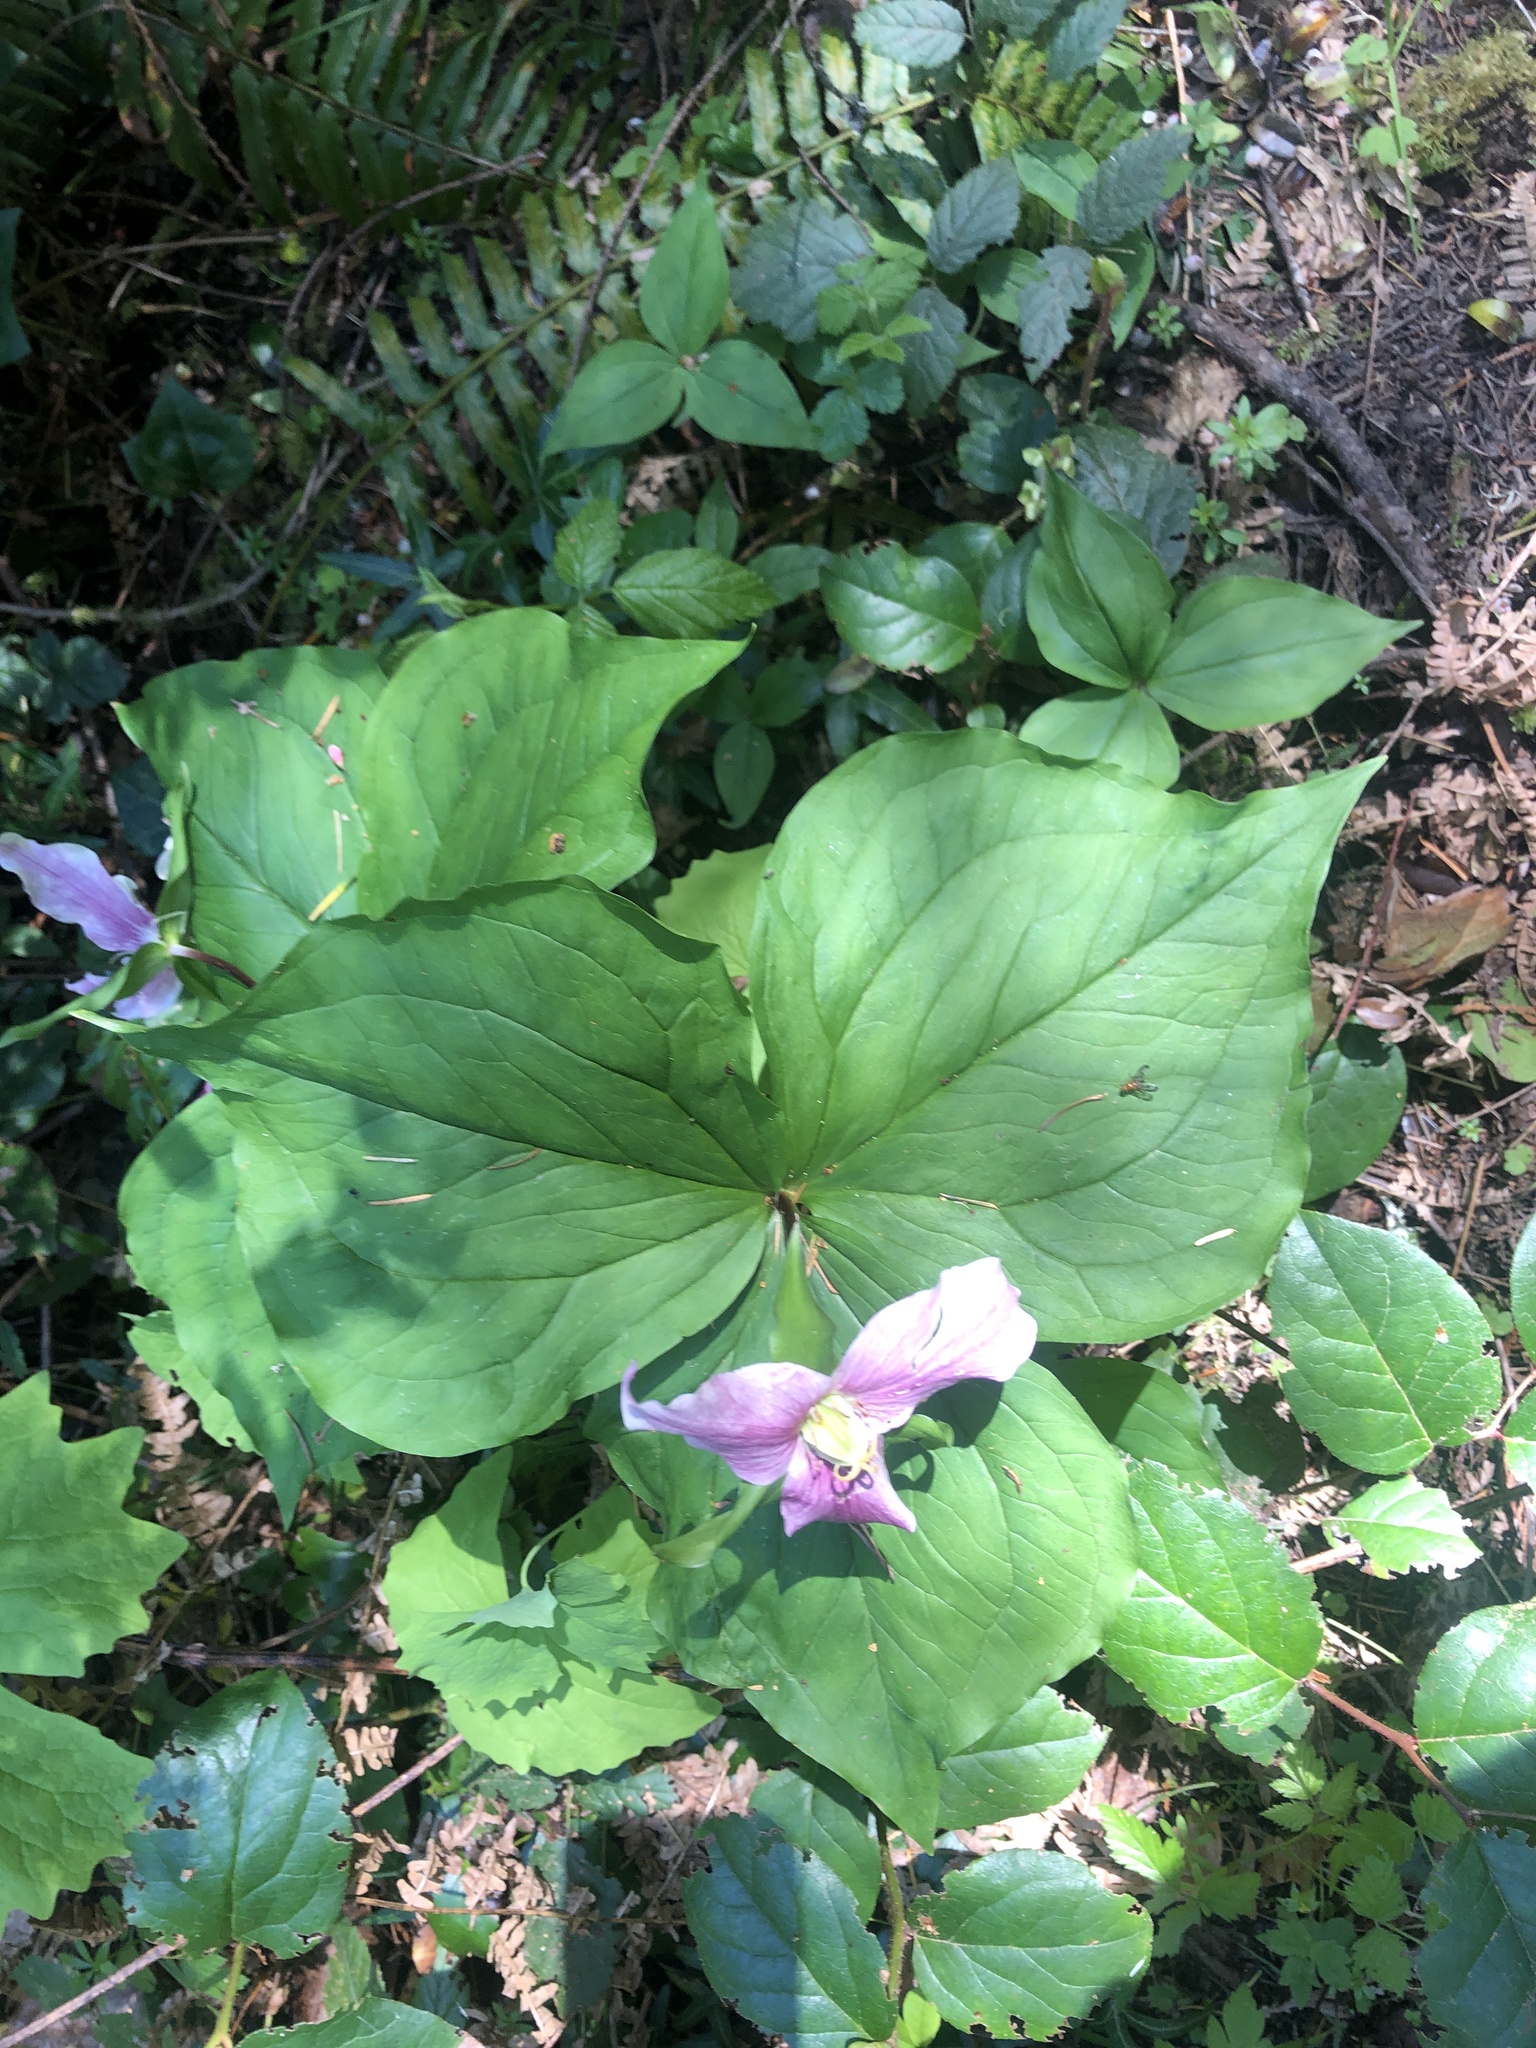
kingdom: Plantae
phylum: Tracheophyta
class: Liliopsida
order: Liliales
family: Melanthiaceae
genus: Trillium
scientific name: Trillium ovatum
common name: Pacific trillium
